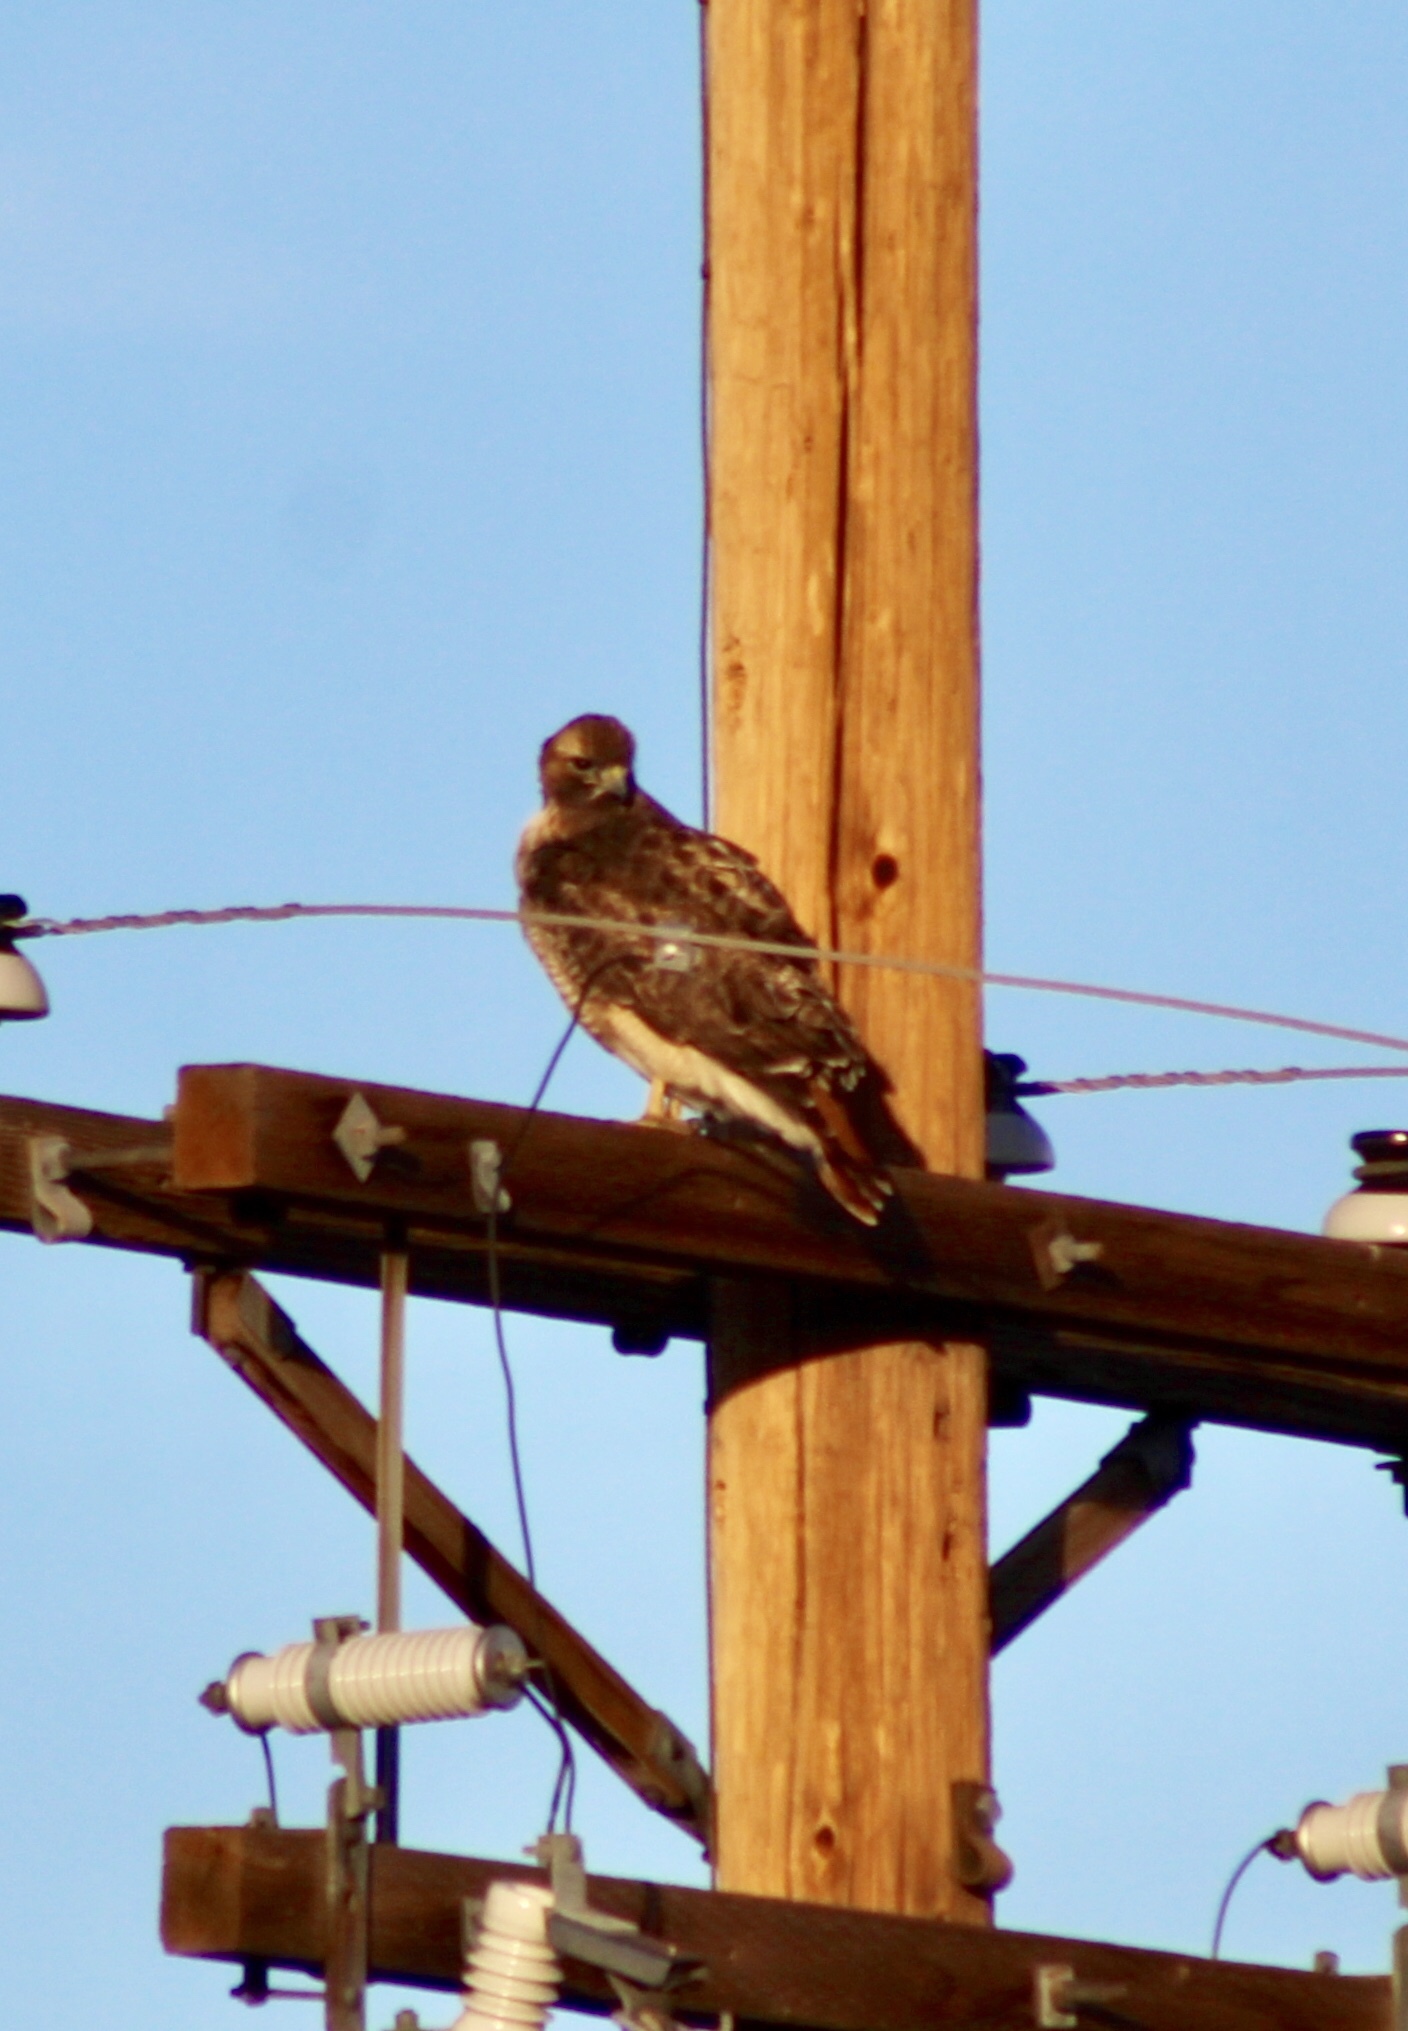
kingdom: Animalia
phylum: Chordata
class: Aves
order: Accipitriformes
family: Accipitridae
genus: Buteo
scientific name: Buteo jamaicensis
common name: Red-tailed hawk
